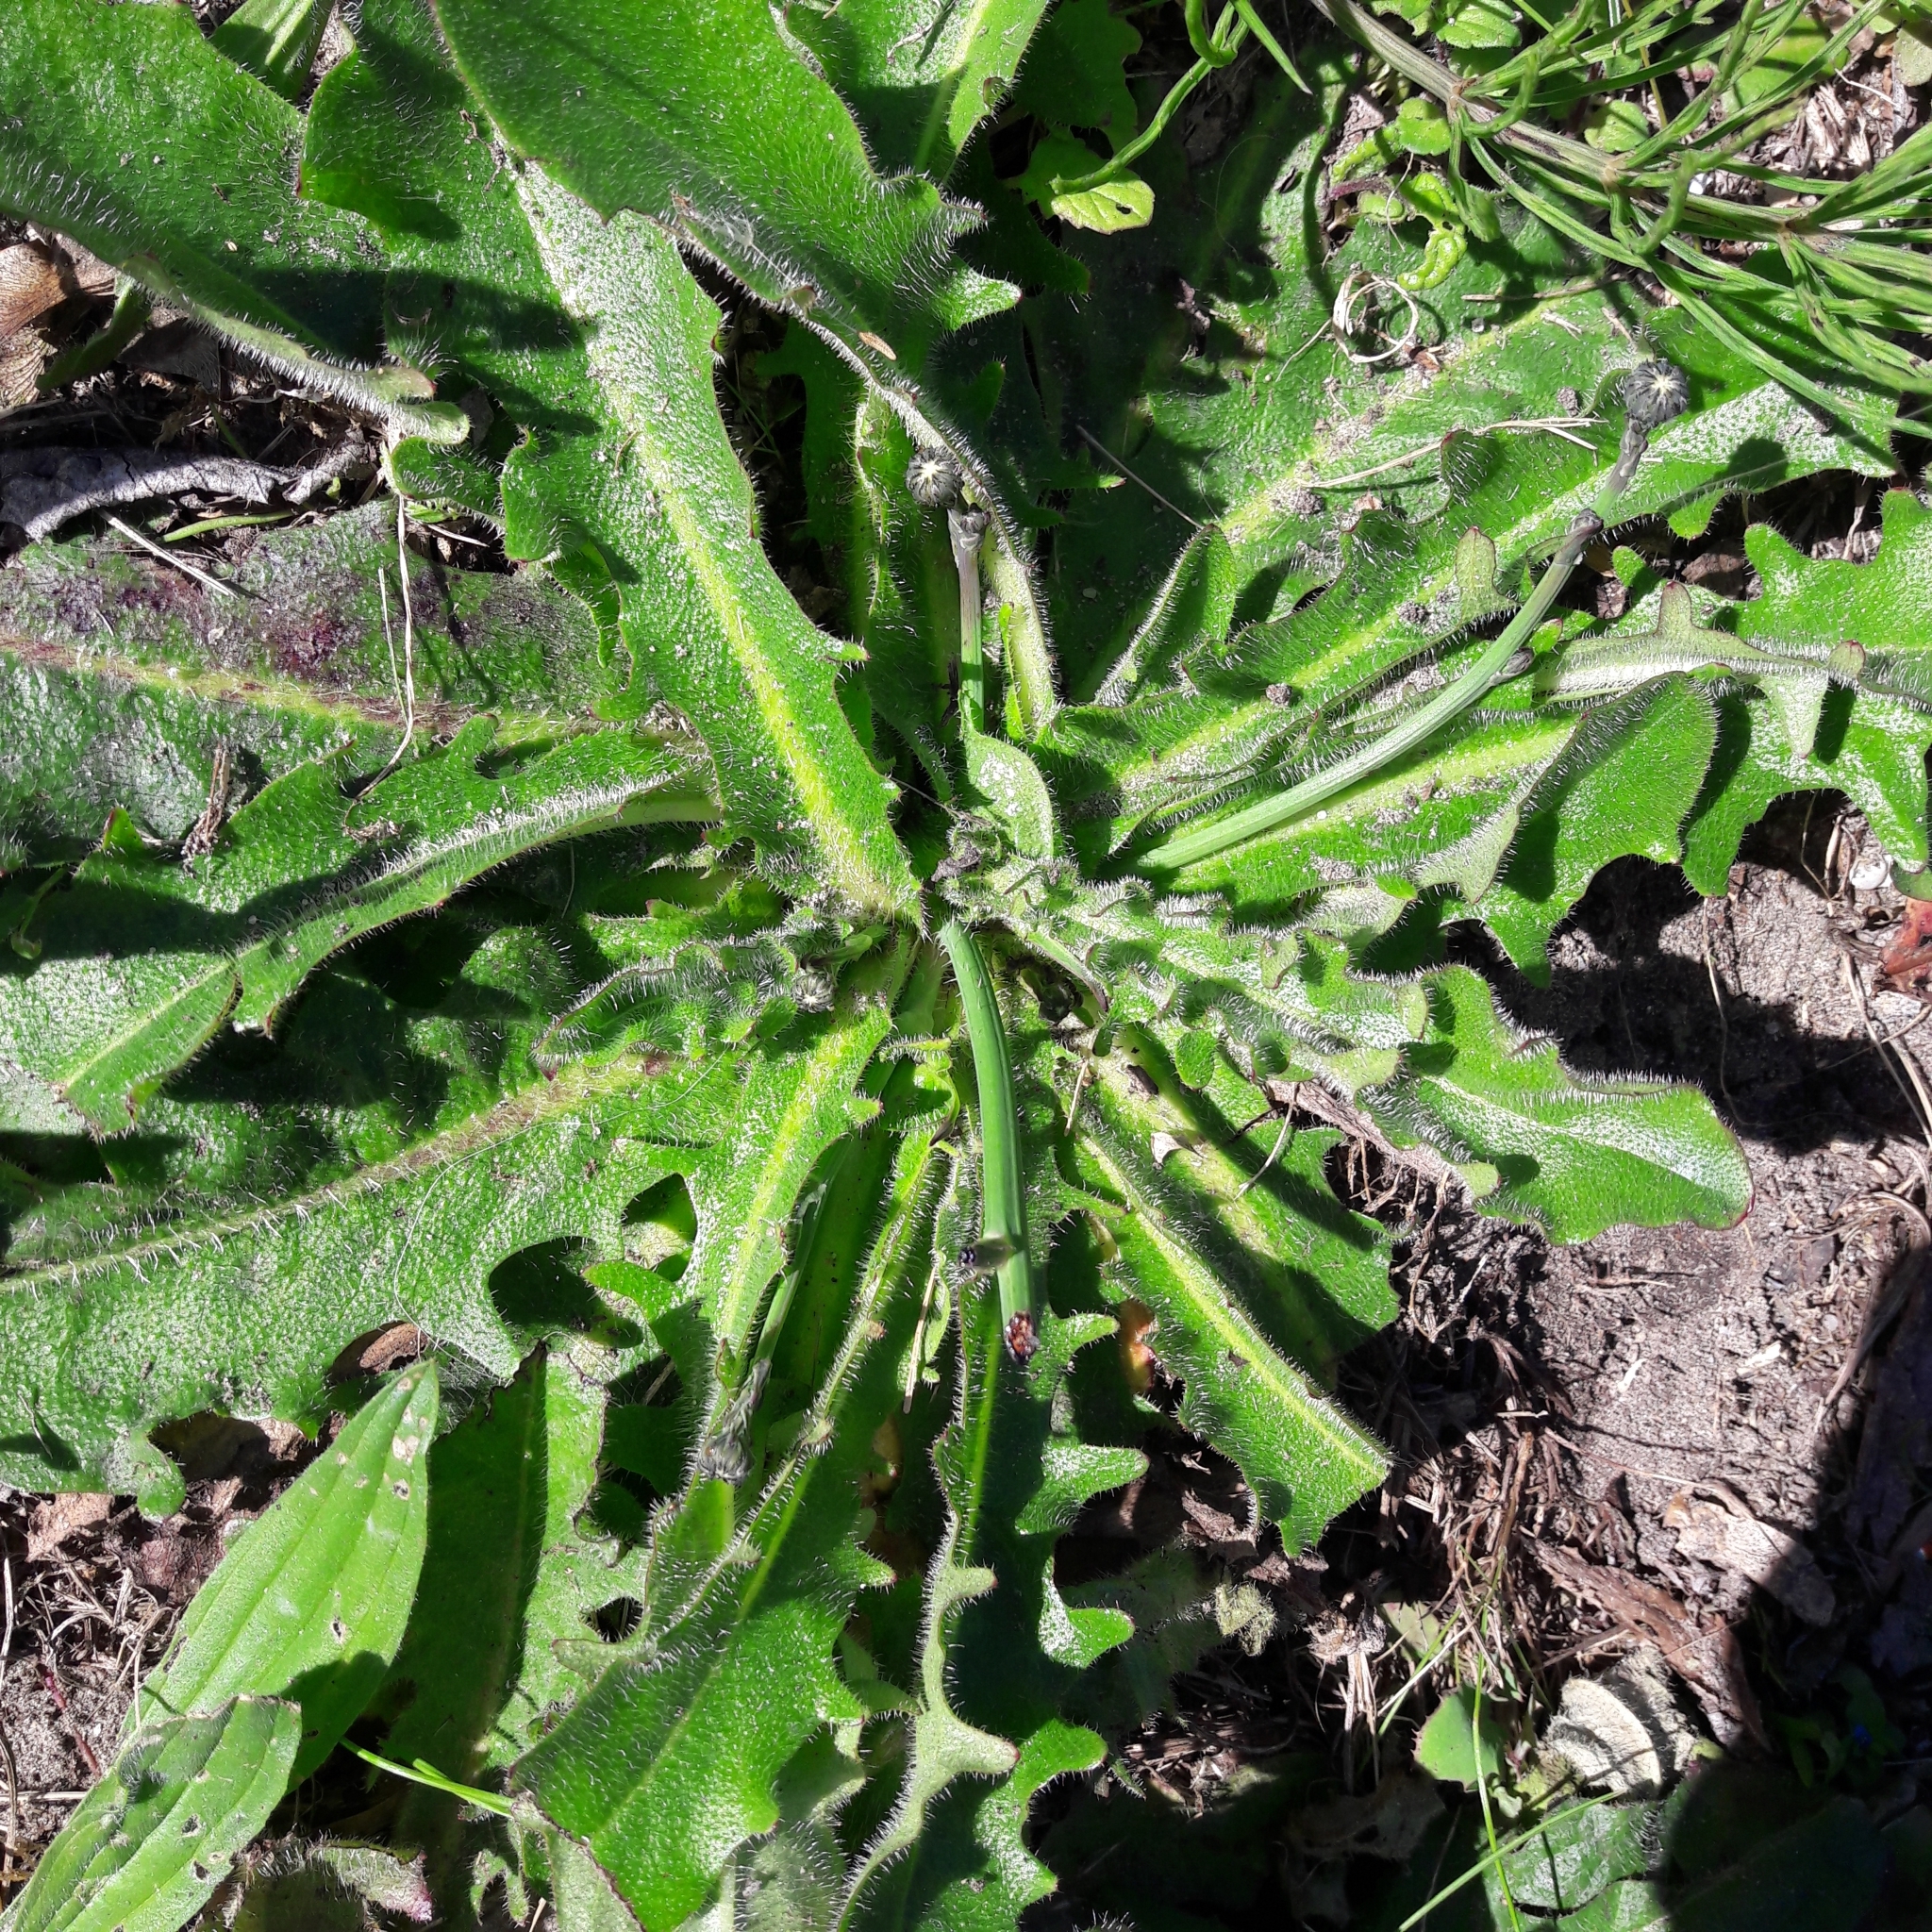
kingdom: Plantae
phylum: Tracheophyta
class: Magnoliopsida
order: Asterales
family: Asteraceae
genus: Hypochaeris
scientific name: Hypochaeris radicata
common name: Flatweed
